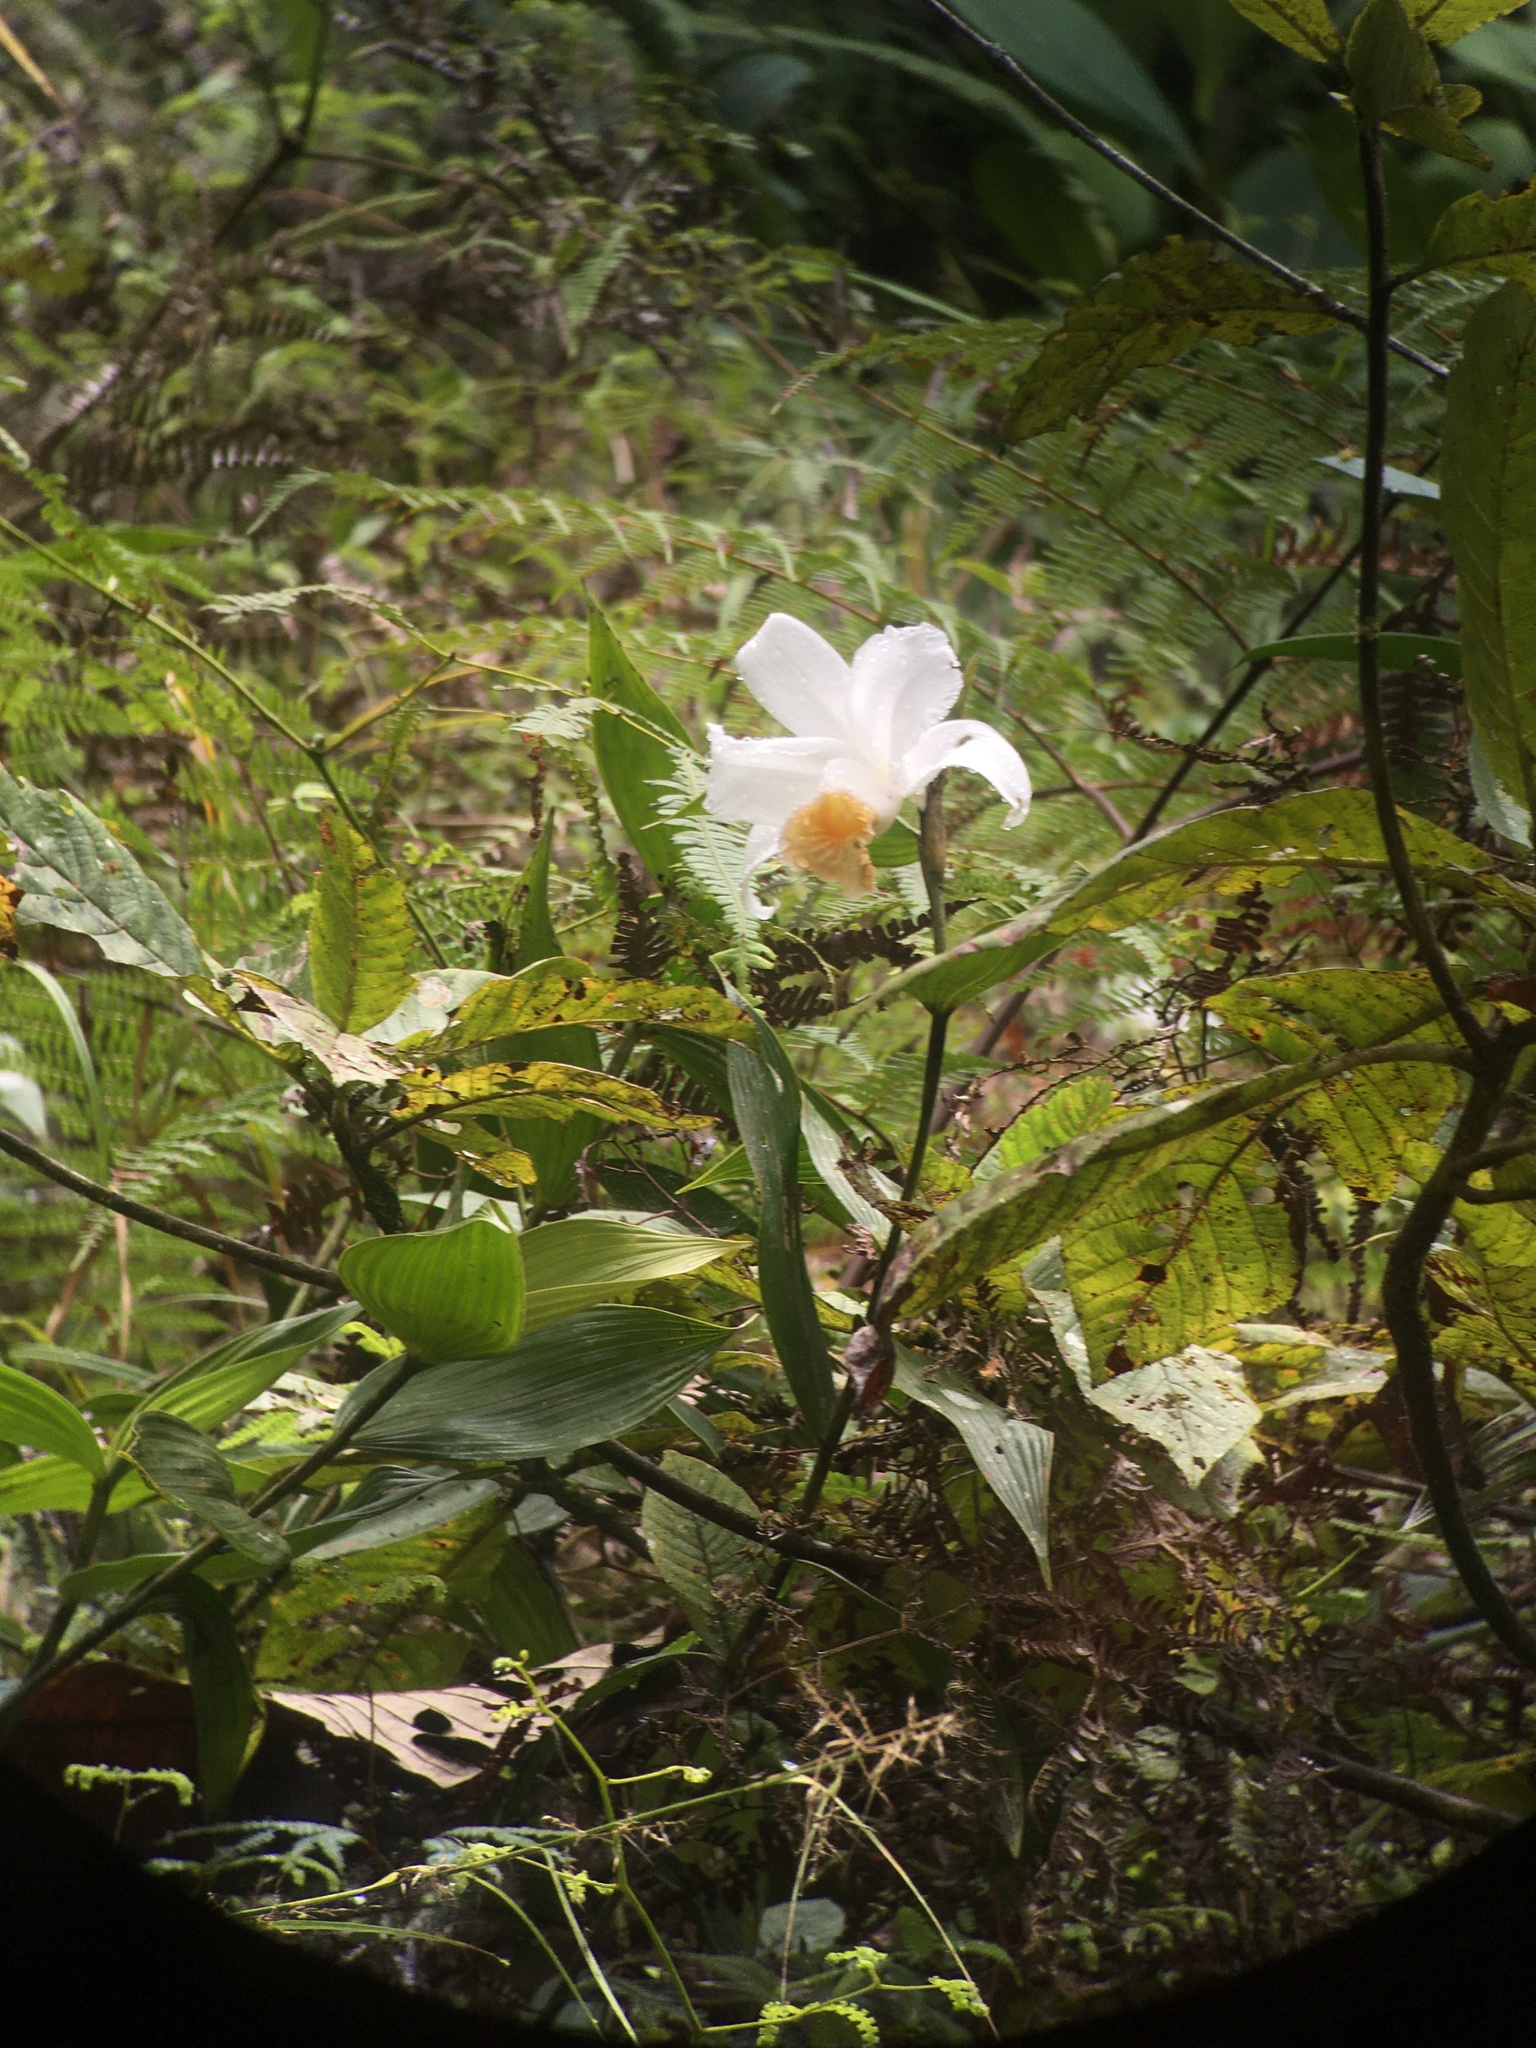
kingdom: Plantae
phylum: Tracheophyta
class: Liliopsida
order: Asparagales
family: Orchidaceae
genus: Sobralia
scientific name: Sobralia chrysostoma
